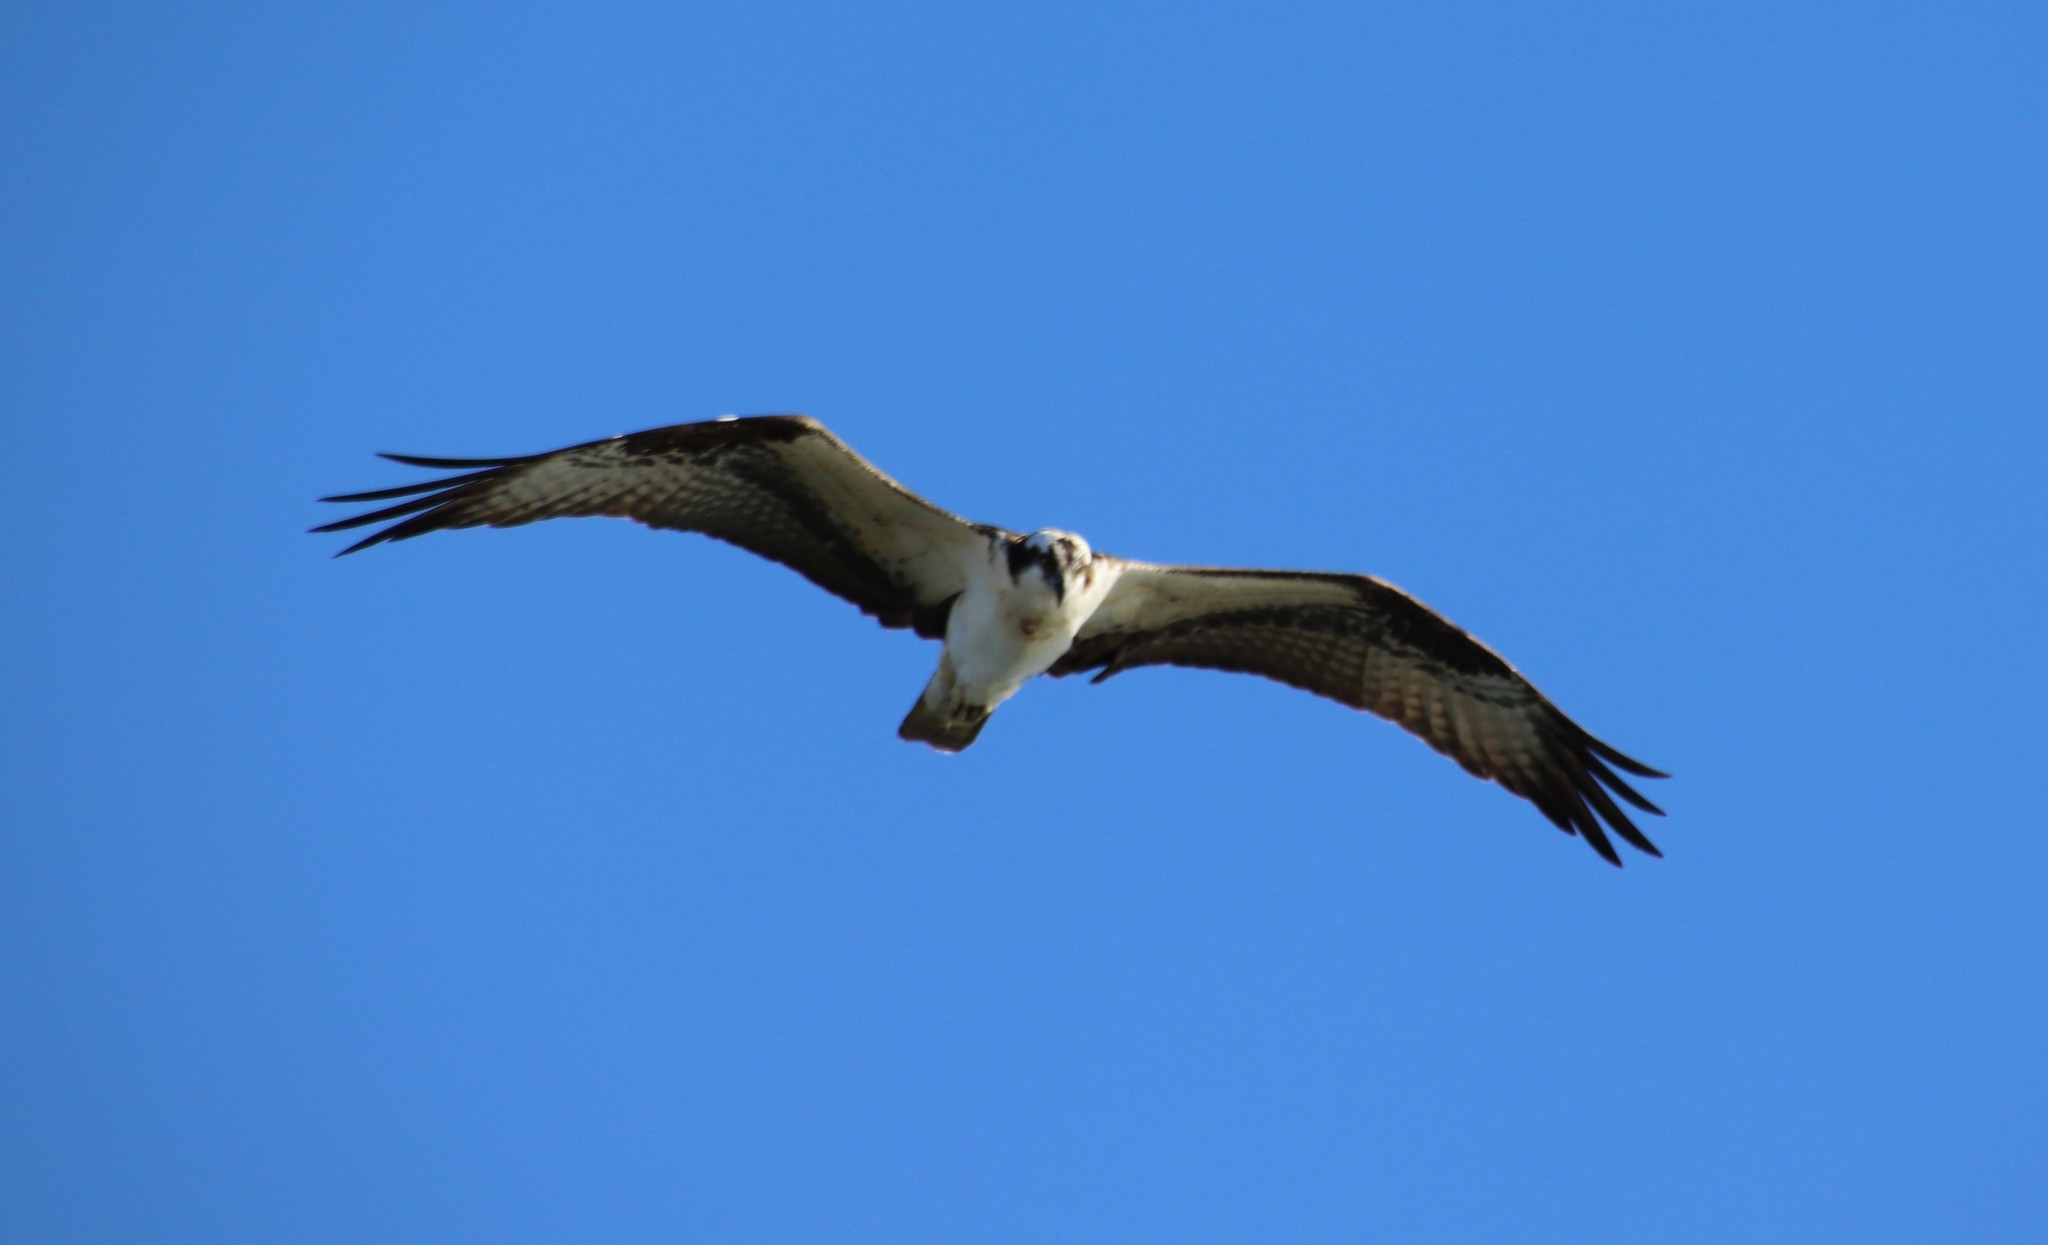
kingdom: Animalia
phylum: Chordata
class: Aves
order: Accipitriformes
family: Pandionidae
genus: Pandion
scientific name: Pandion haliaetus
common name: Osprey
